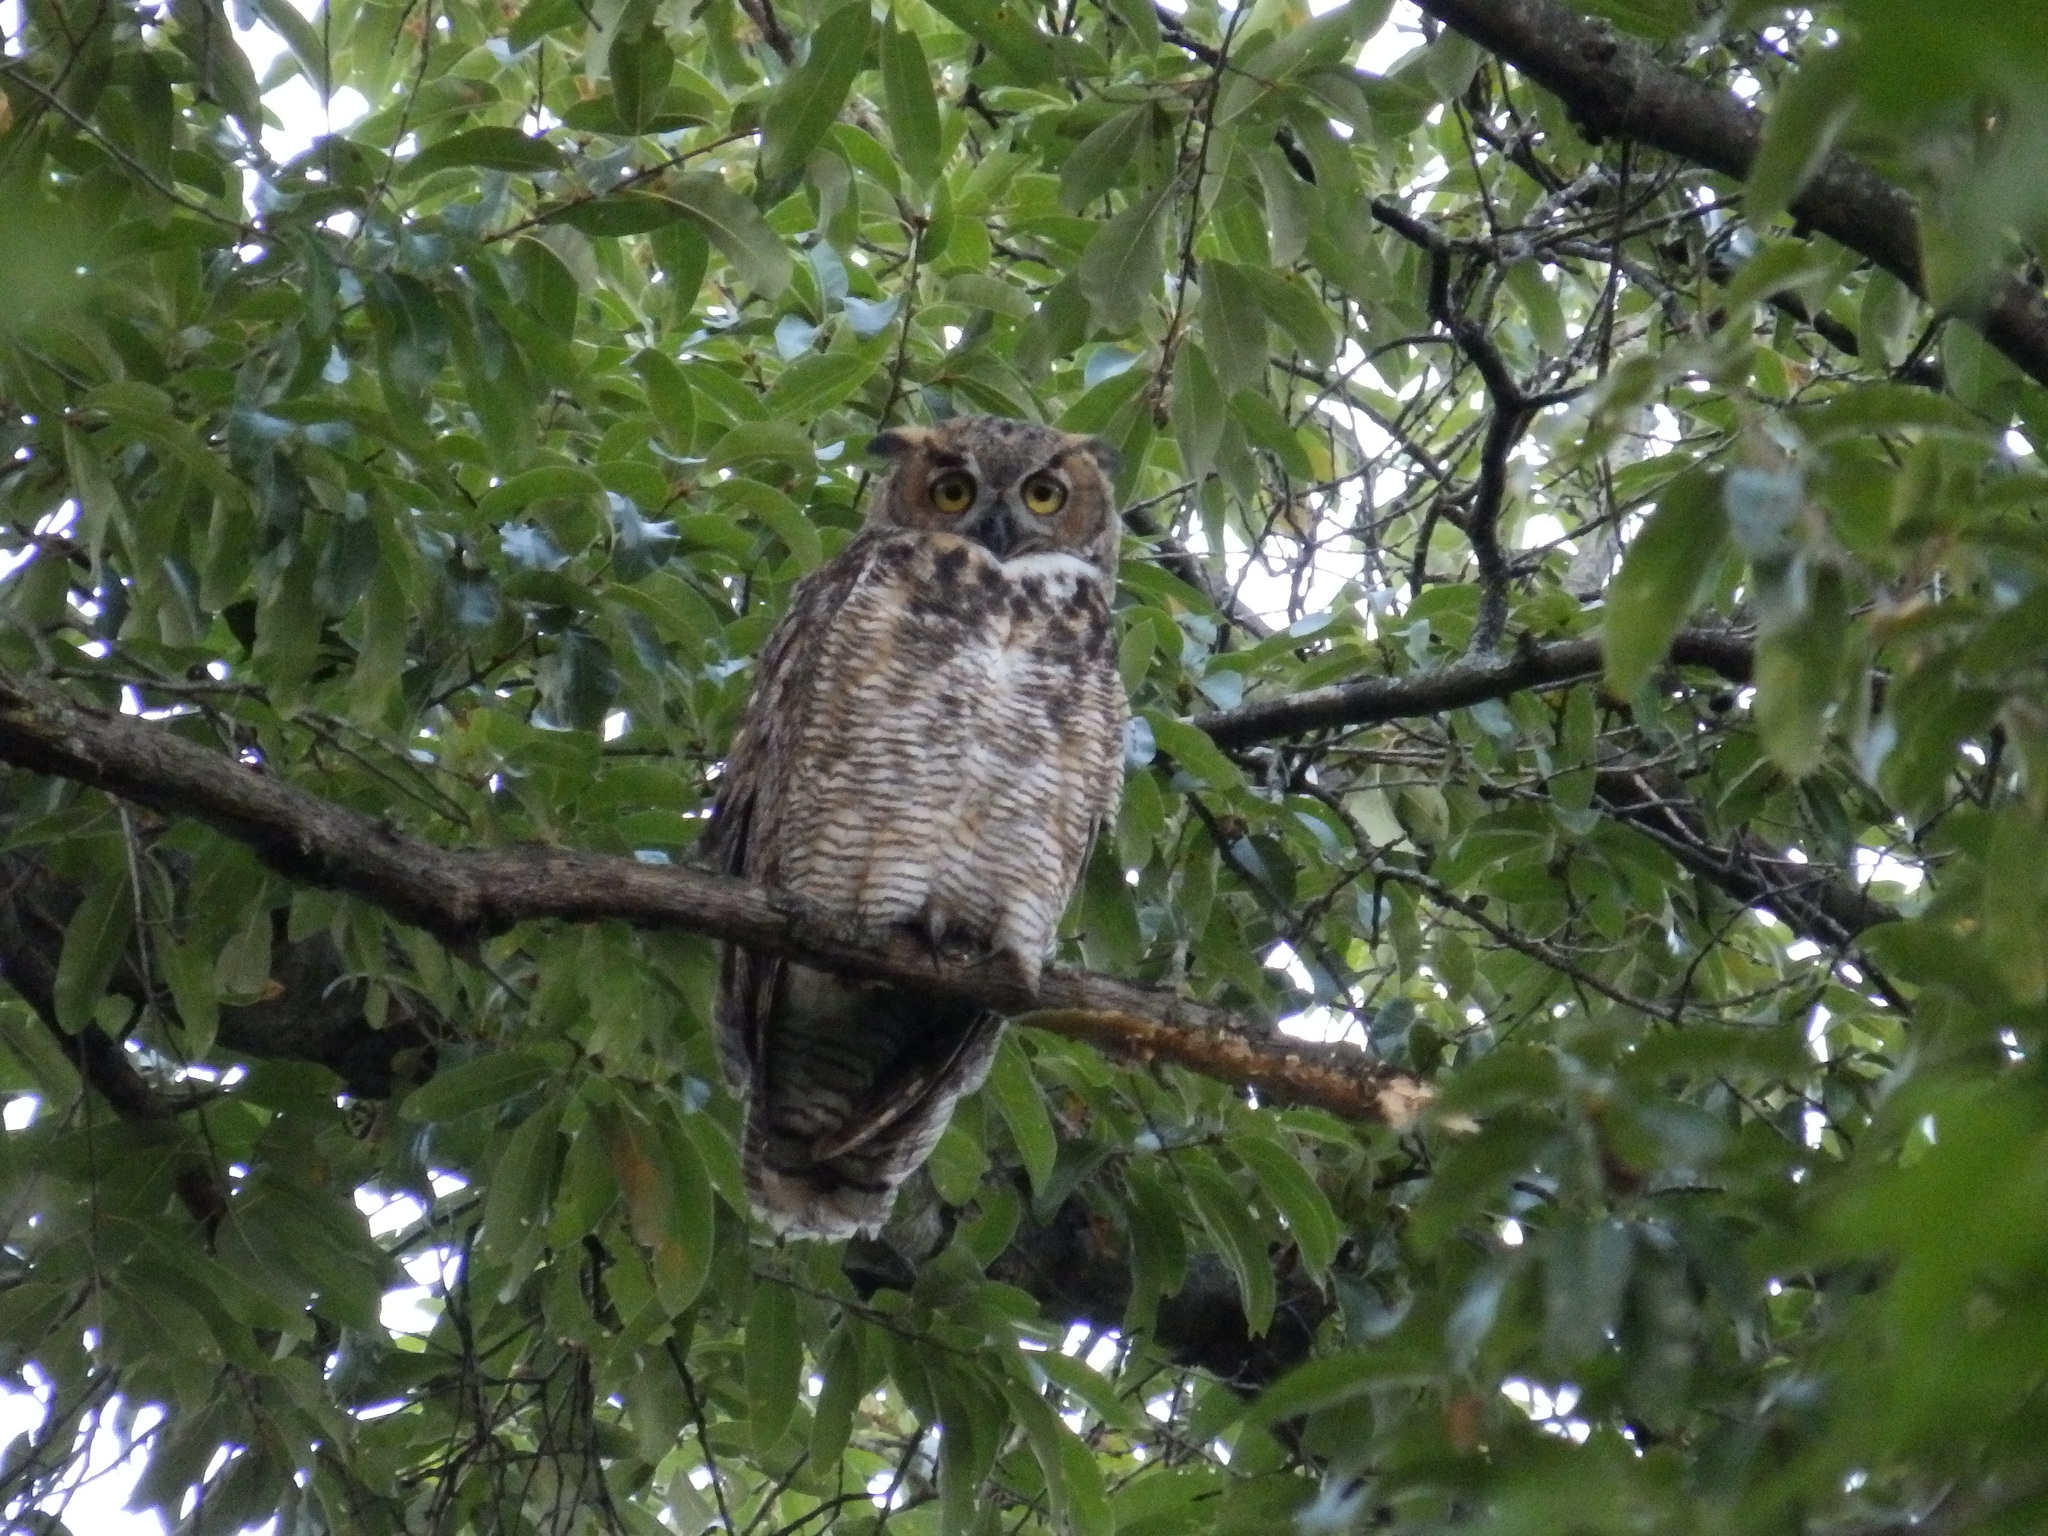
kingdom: Animalia
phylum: Chordata
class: Aves
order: Strigiformes
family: Strigidae
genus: Bubo
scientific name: Bubo virginianus
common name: Great horned owl
